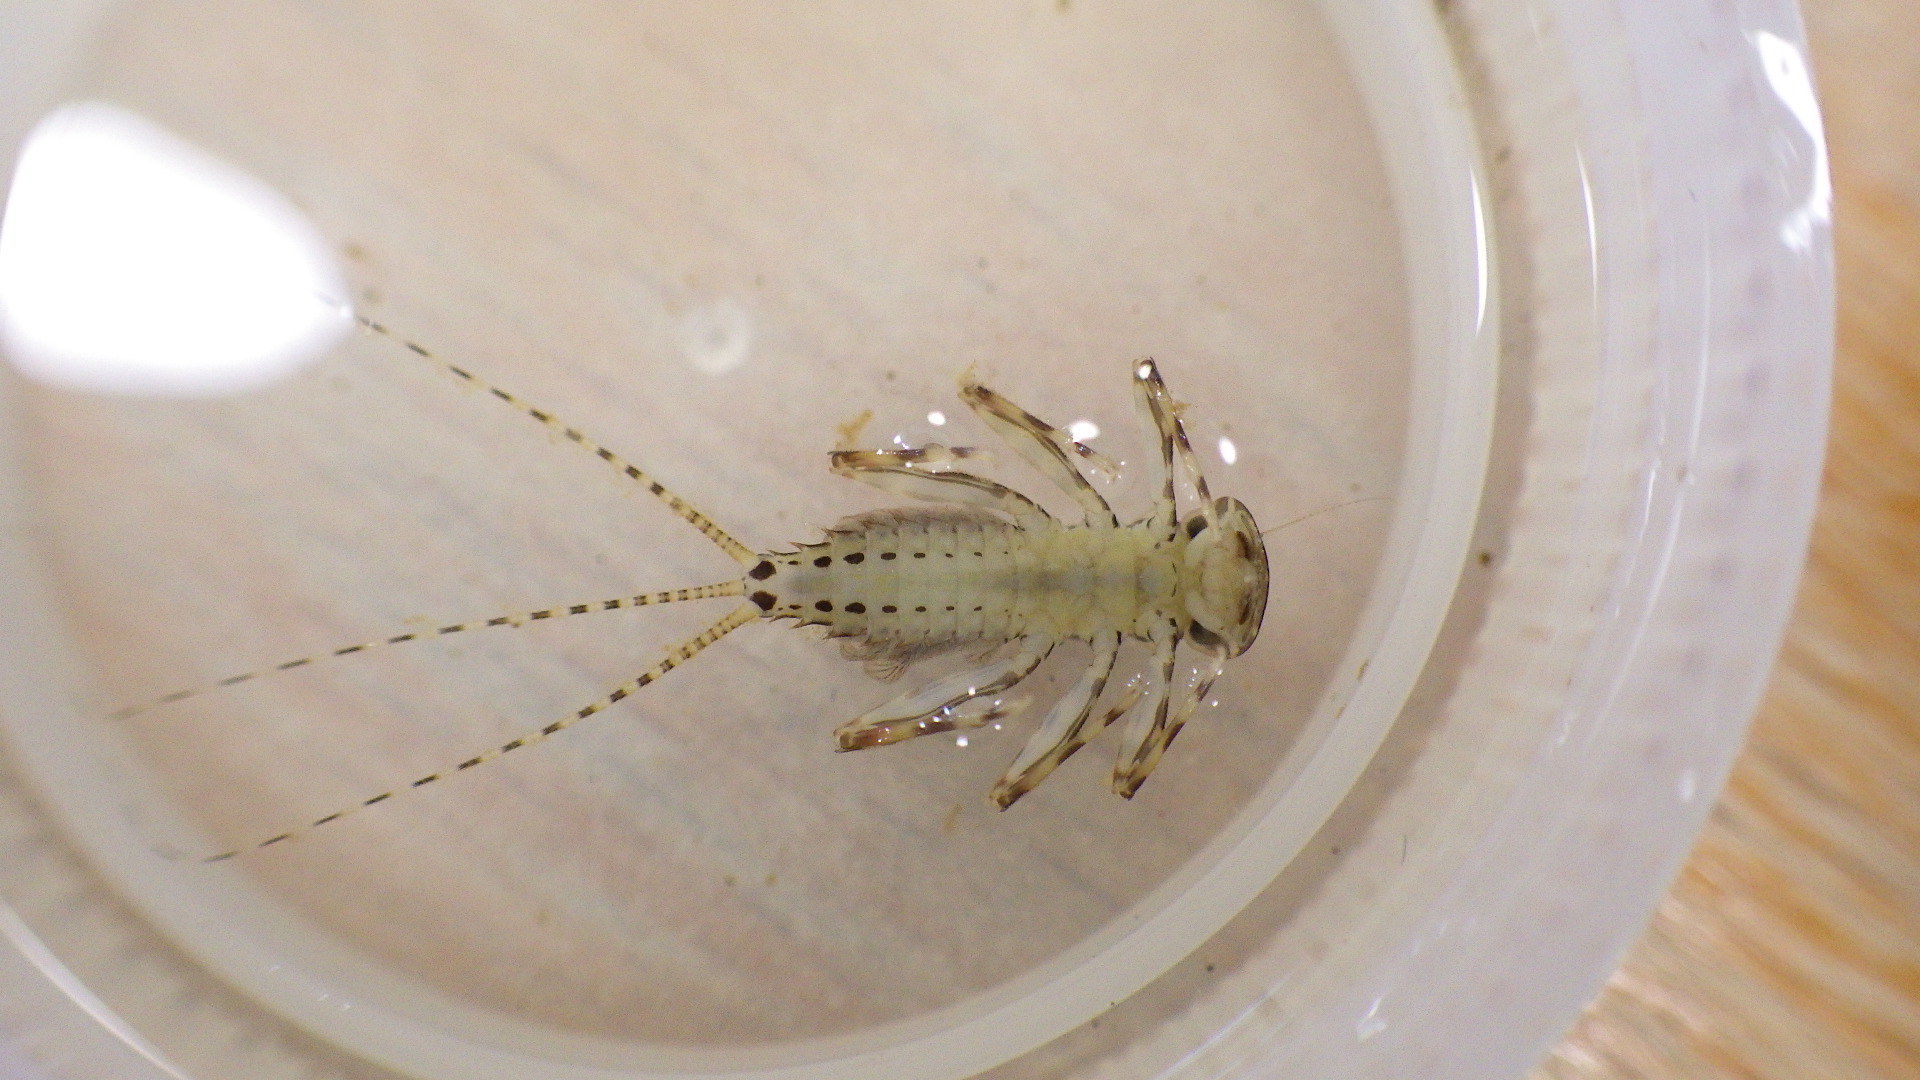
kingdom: Animalia
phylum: Arthropoda
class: Insecta
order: Ephemeroptera
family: Heptageniidae
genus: Stenonema
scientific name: Stenonema femoratum
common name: Dark cahill
